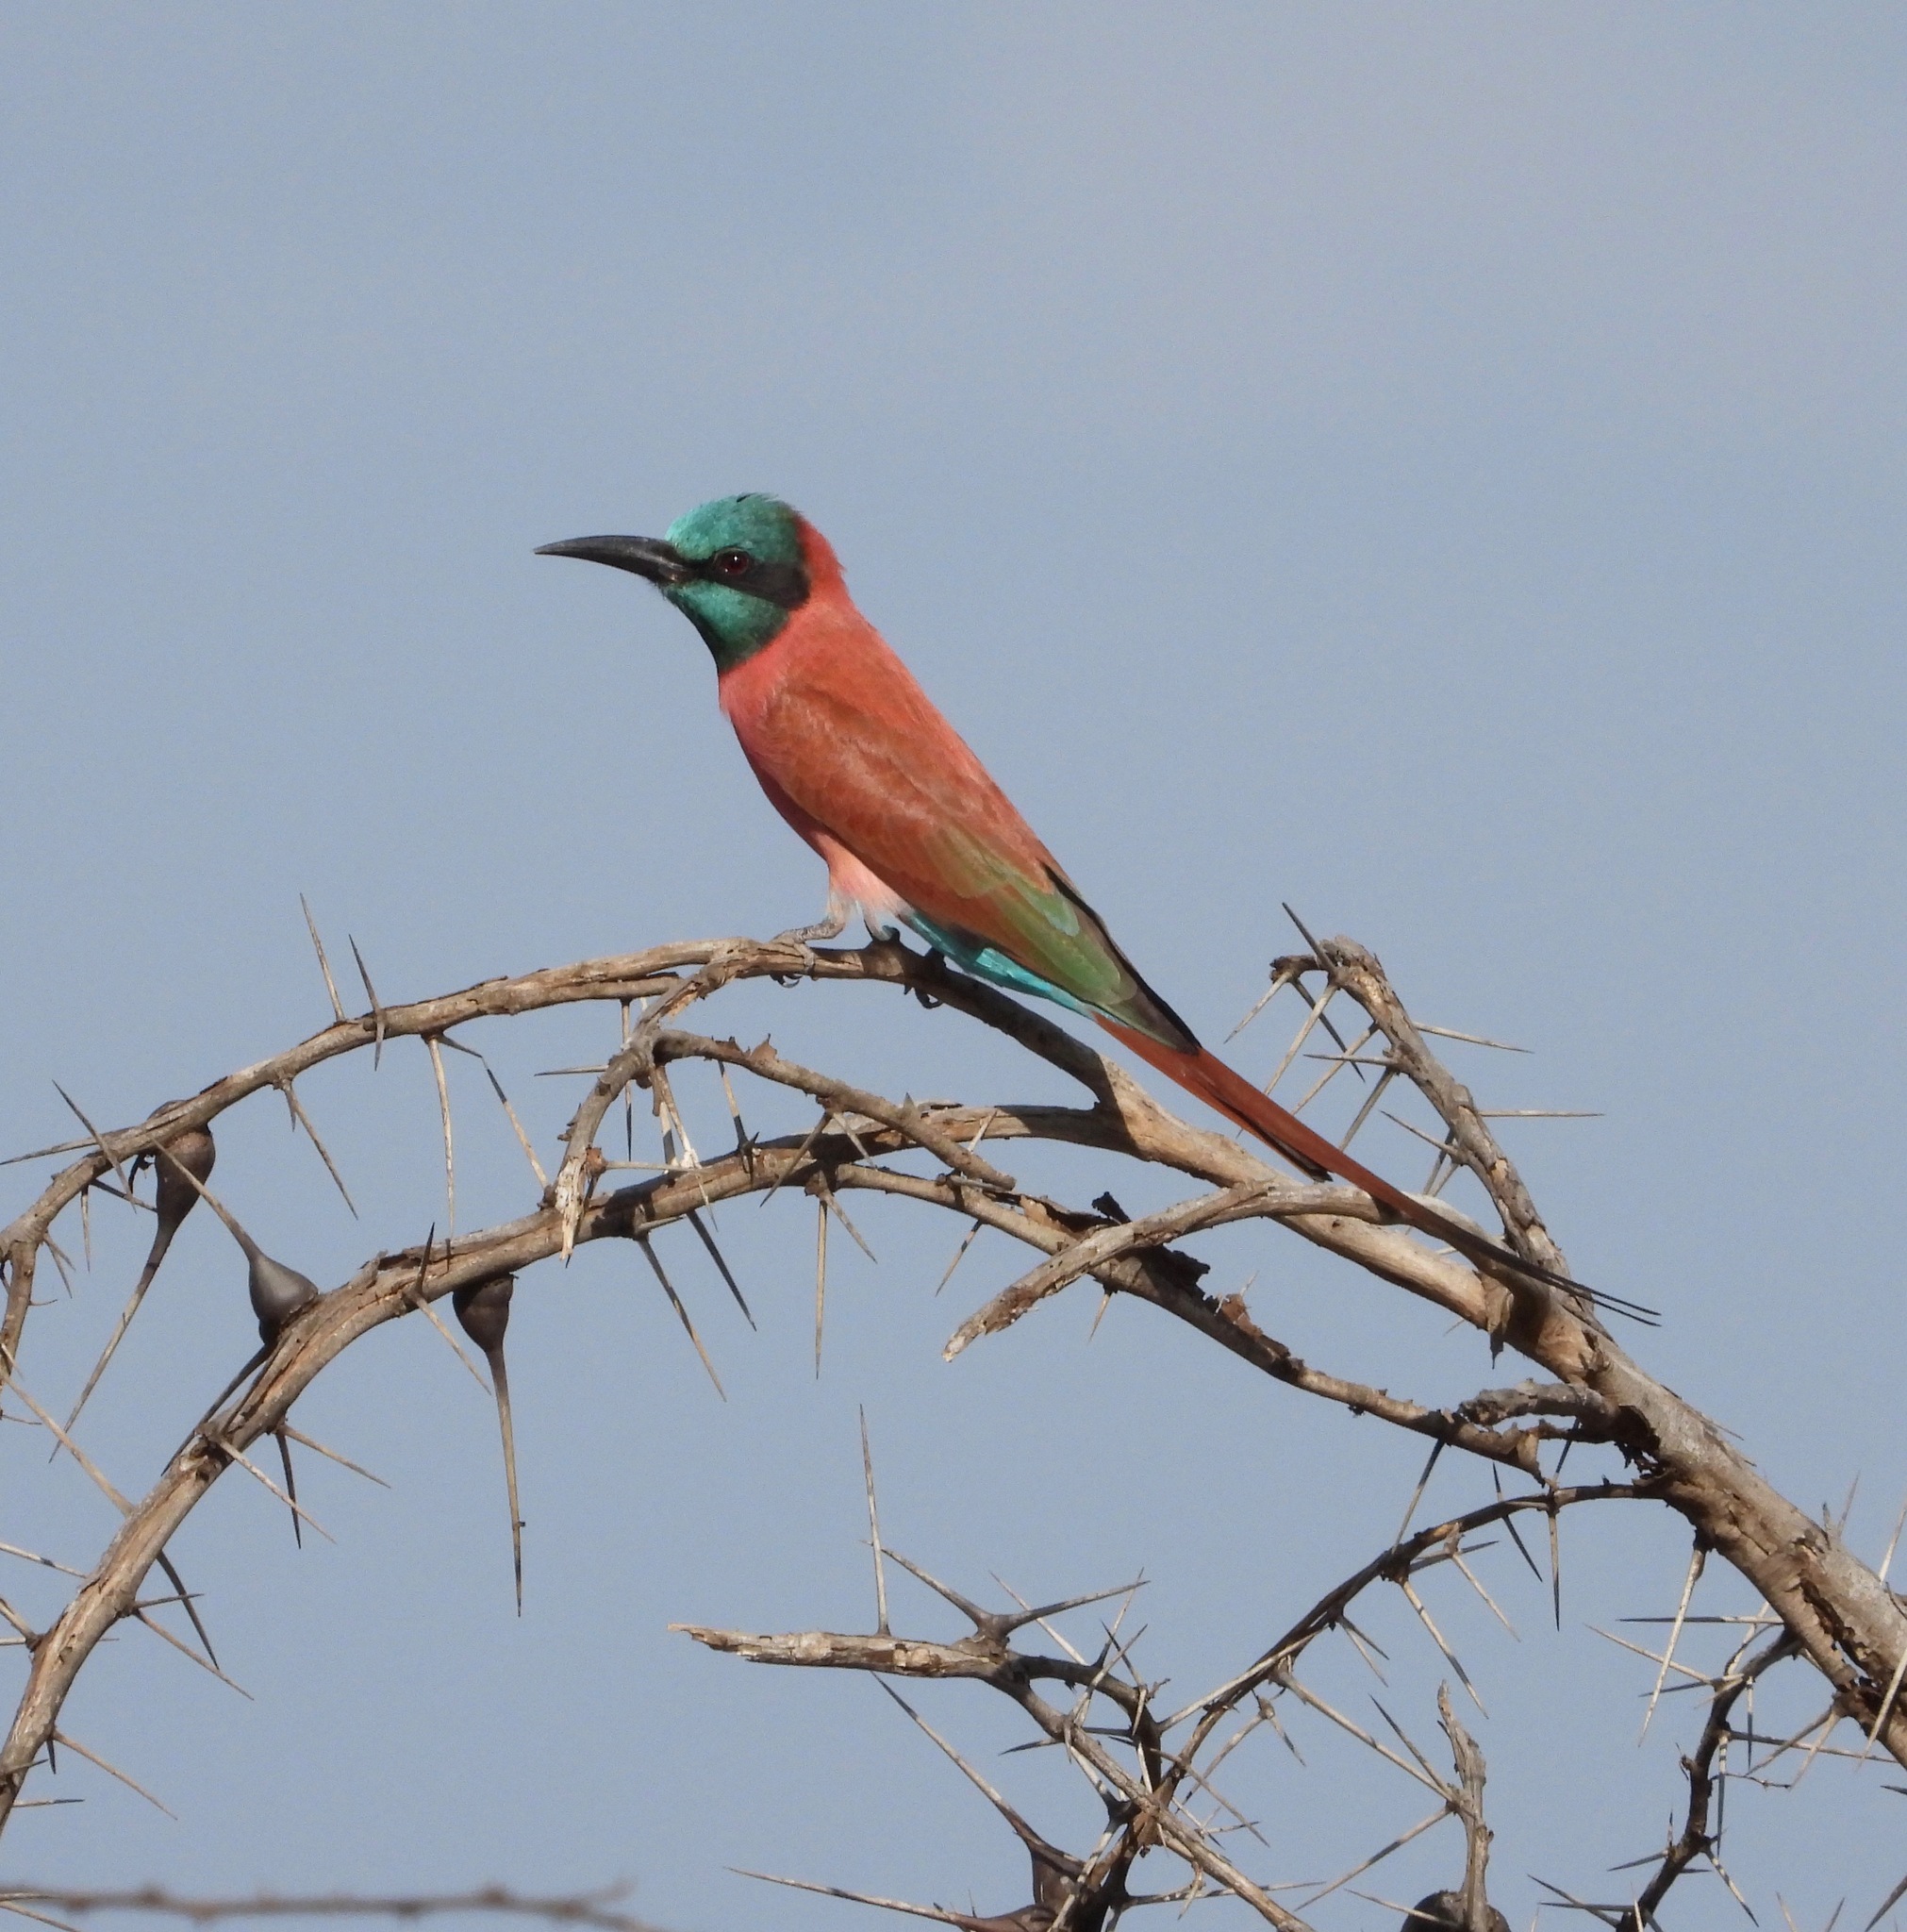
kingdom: Animalia
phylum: Chordata
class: Aves
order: Coraciiformes
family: Meropidae
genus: Merops
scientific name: Merops nubicus
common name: Northern carmine bee-eater
